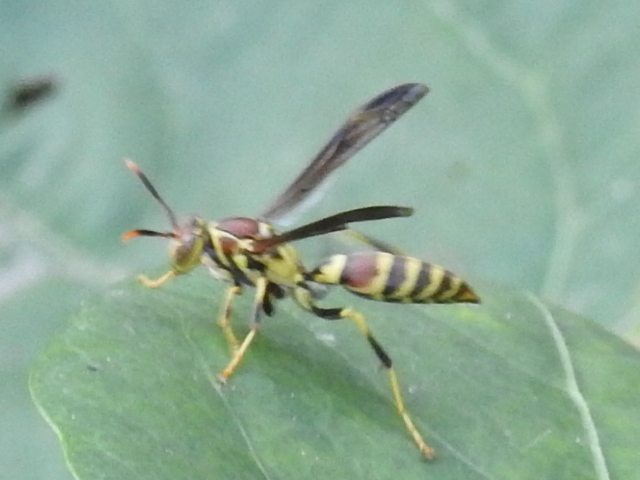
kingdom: Animalia
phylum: Arthropoda
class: Insecta
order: Hymenoptera
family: Eumenidae
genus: Polistes
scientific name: Polistes exclamans
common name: Paper wasp
